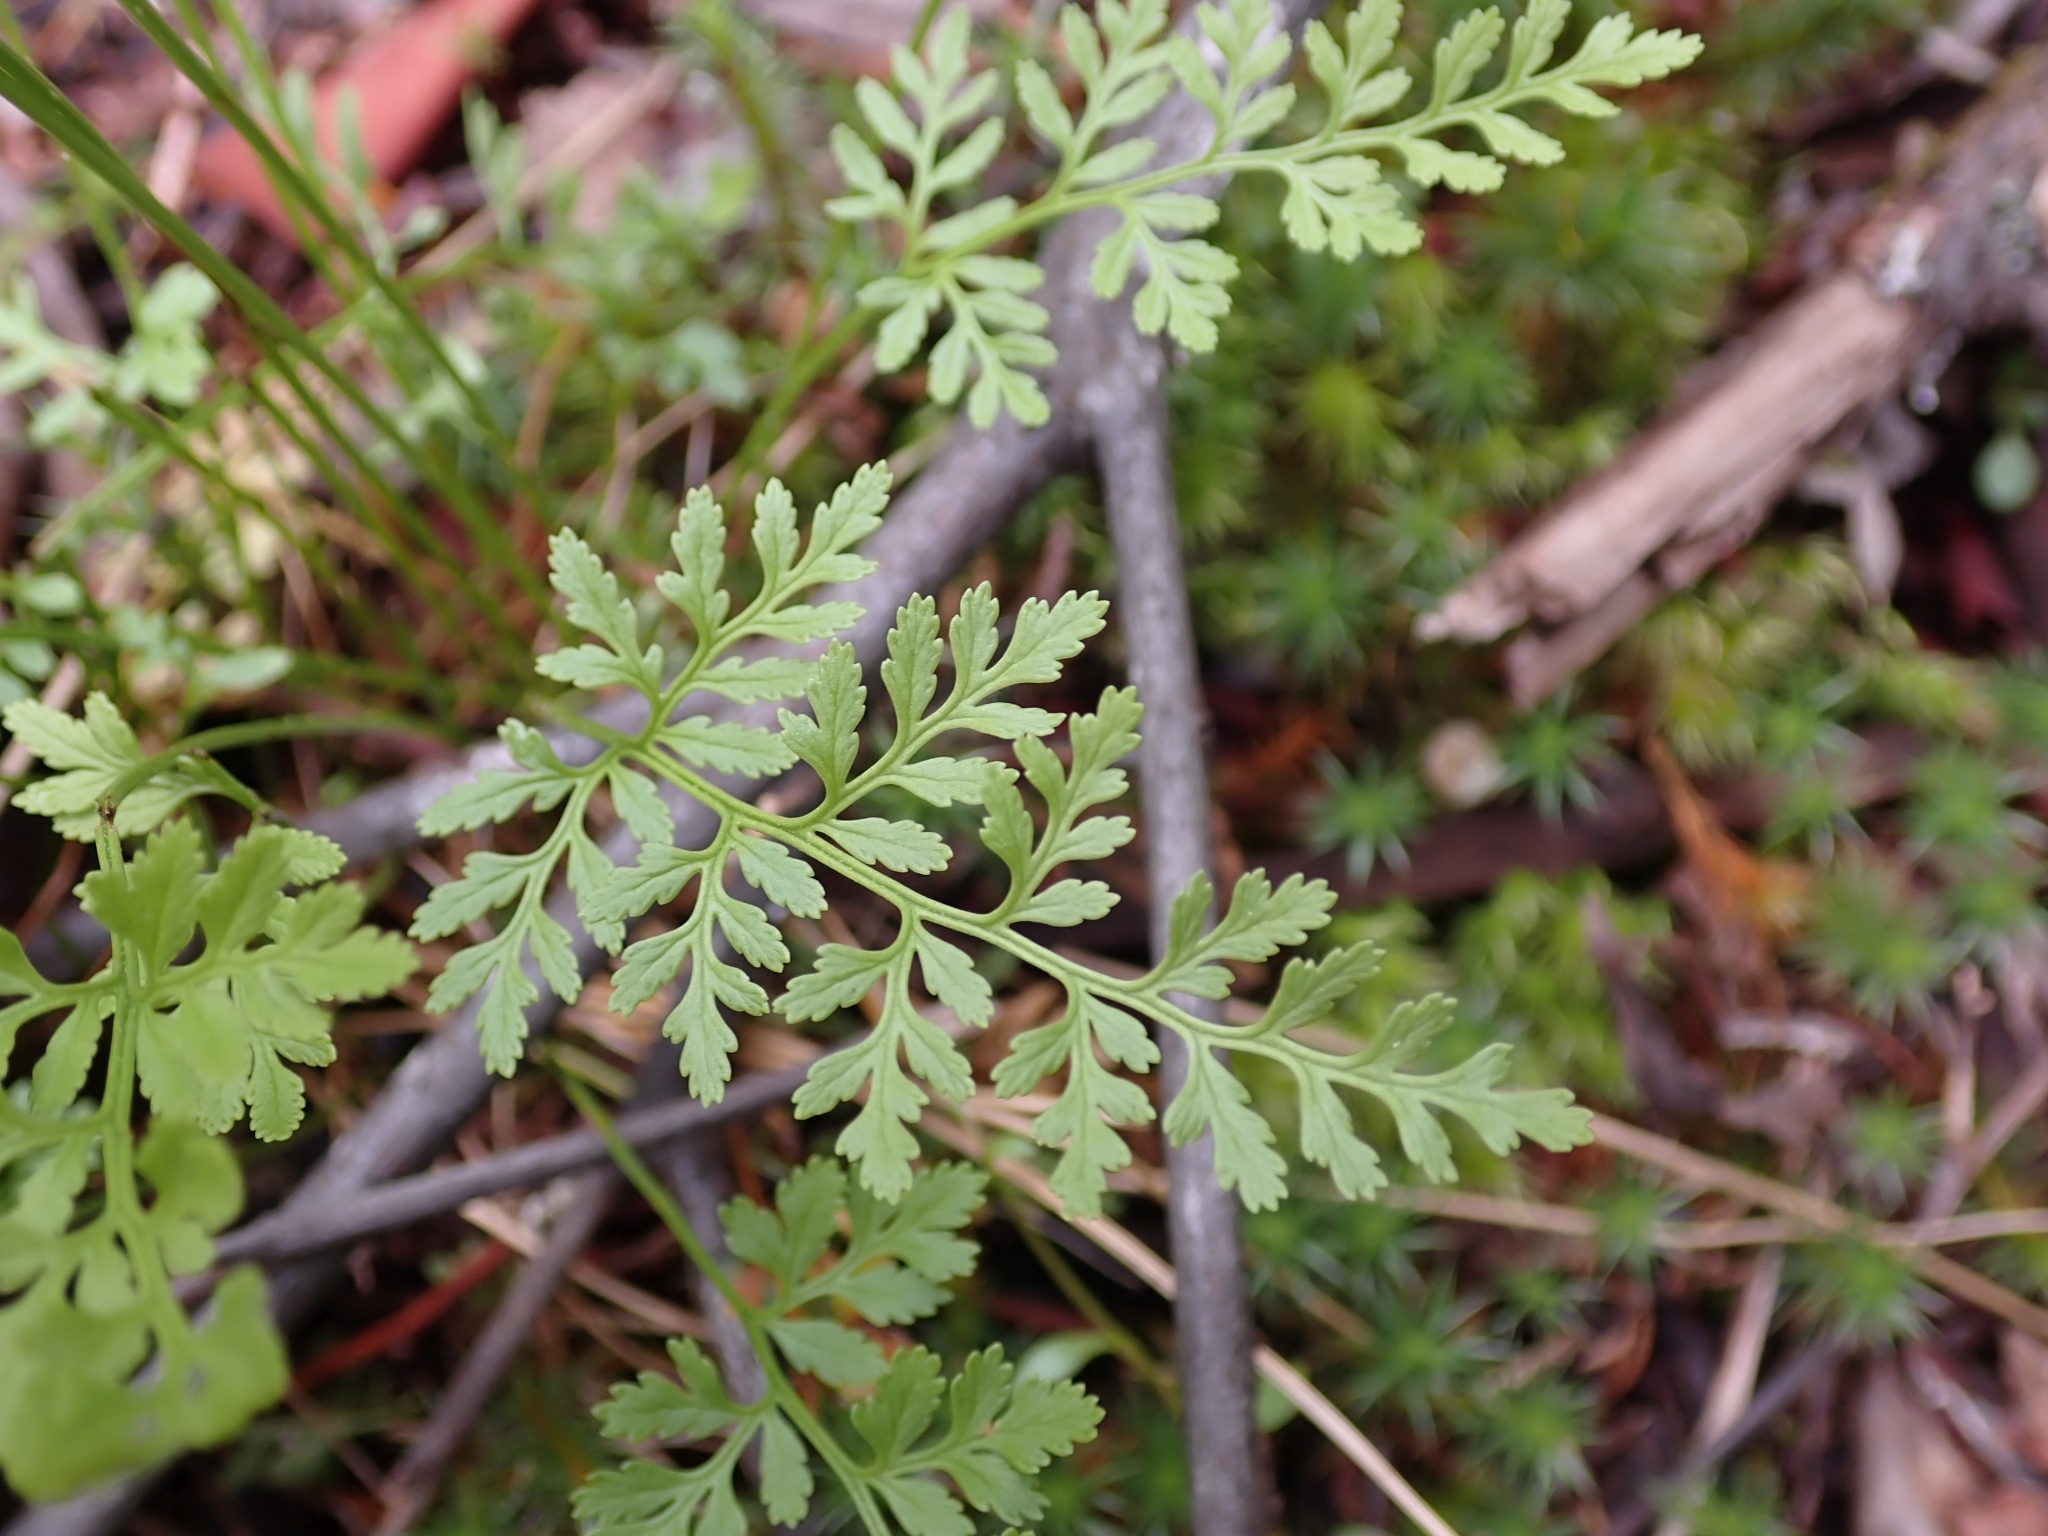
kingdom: Plantae
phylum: Tracheophyta
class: Polypodiopsida
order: Polypodiales
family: Pteridaceae
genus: Cryptogramma
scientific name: Cryptogramma acrostichoides
